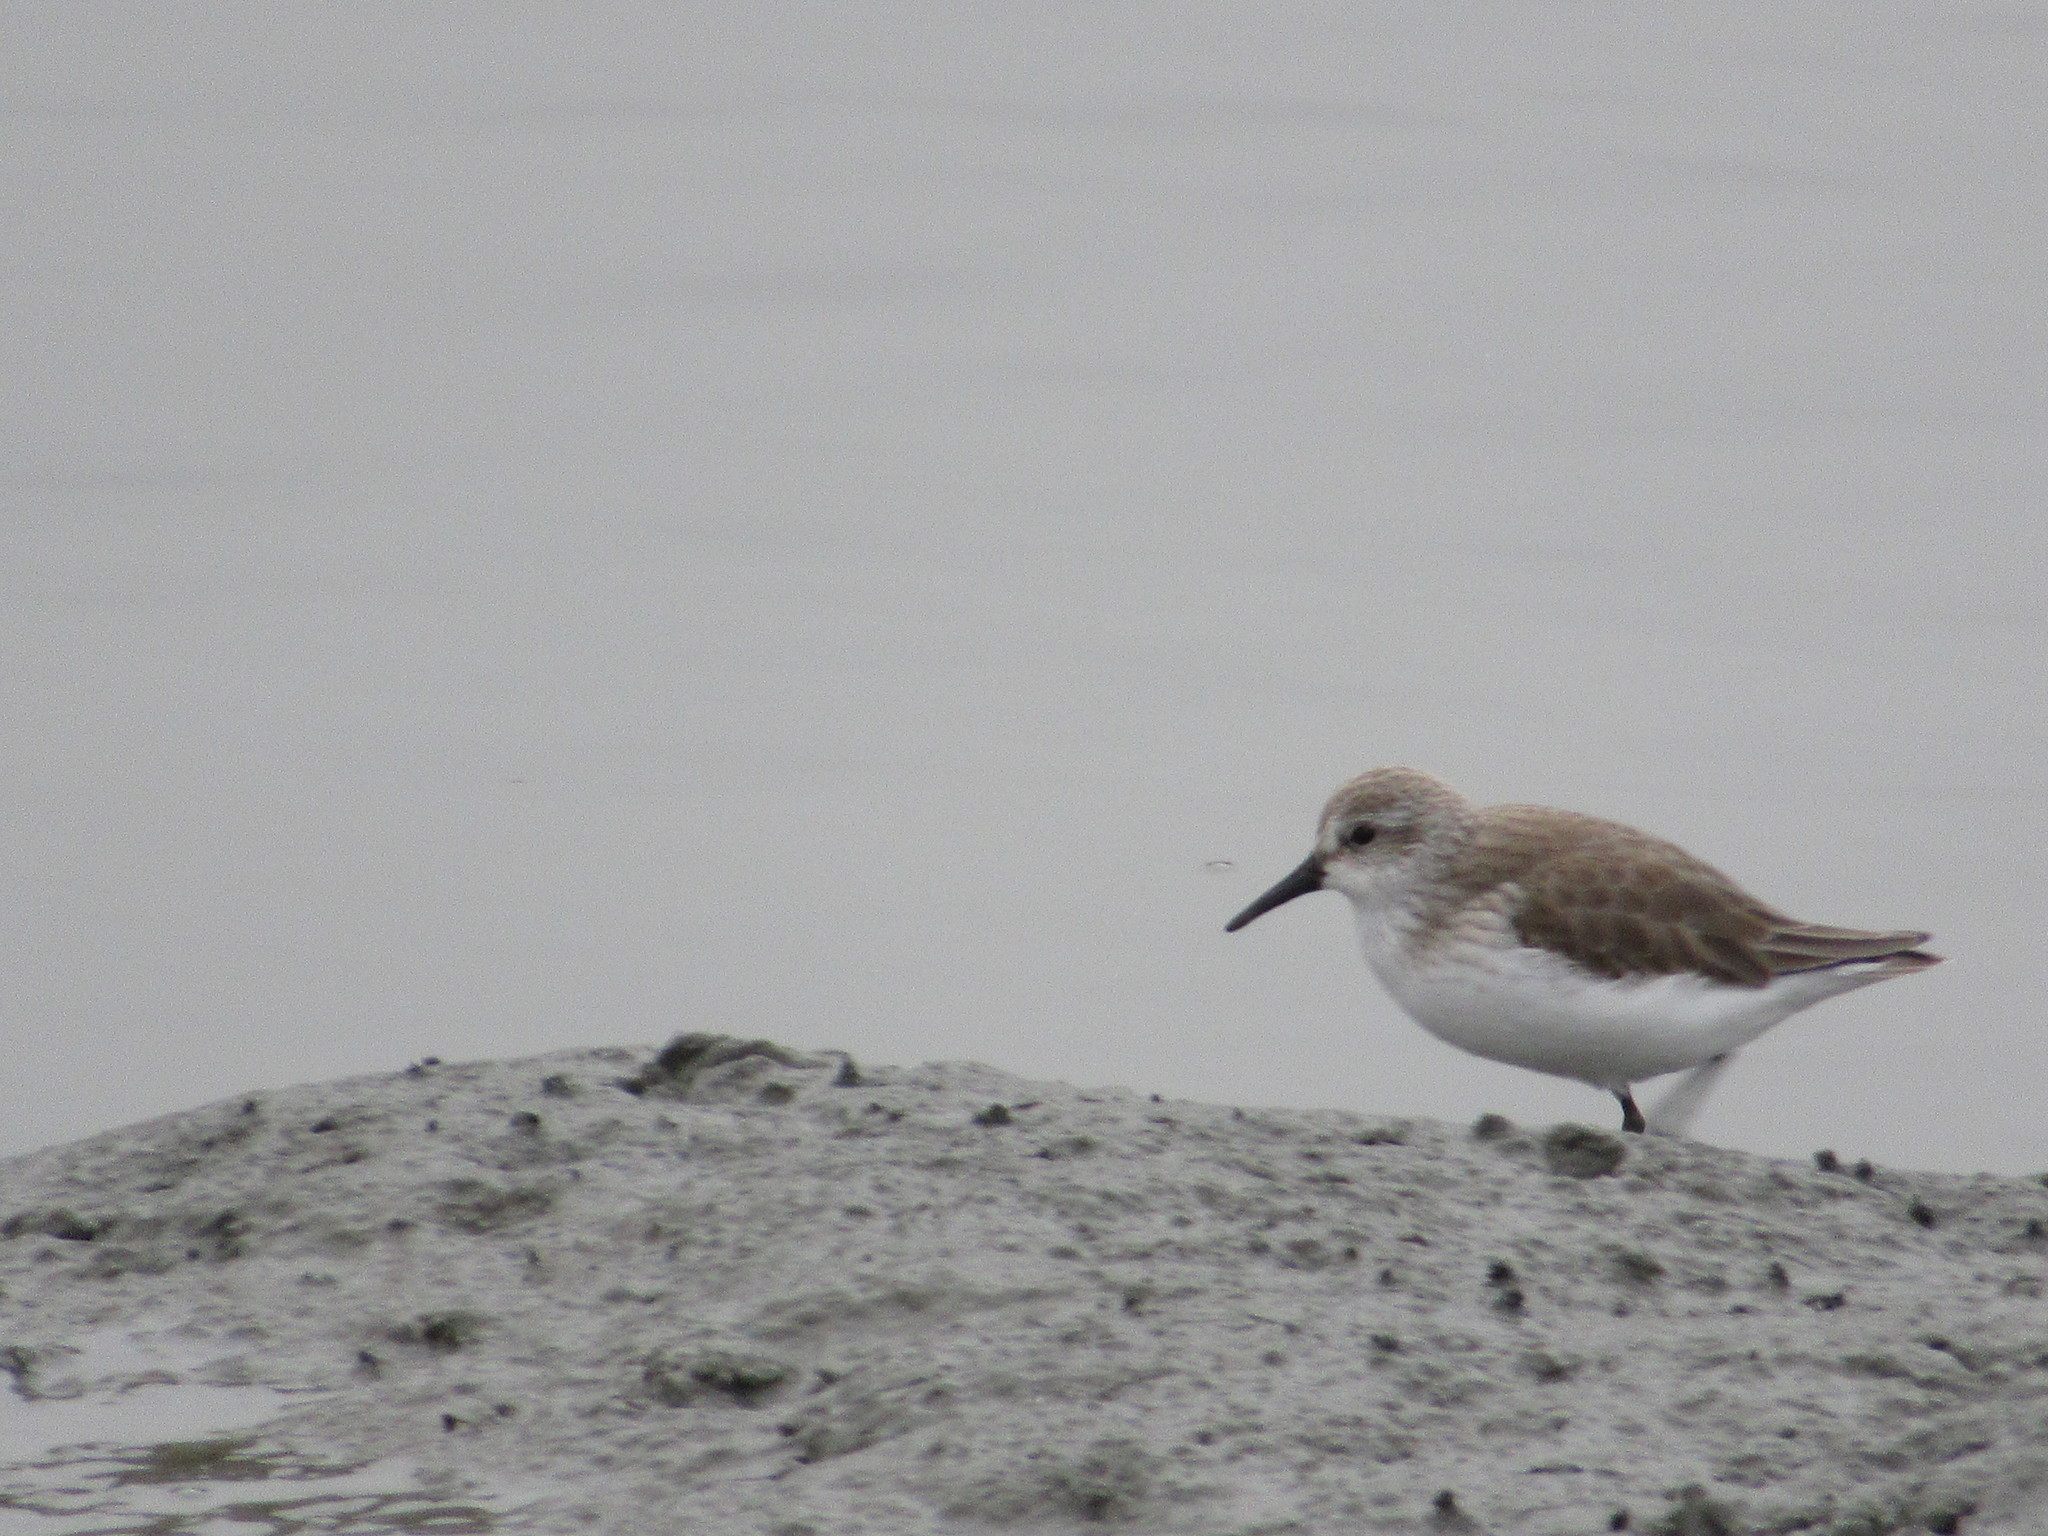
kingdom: Animalia
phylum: Chordata
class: Aves
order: Charadriiformes
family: Scolopacidae
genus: Calidris
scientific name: Calidris mauri
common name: Western sandpiper
